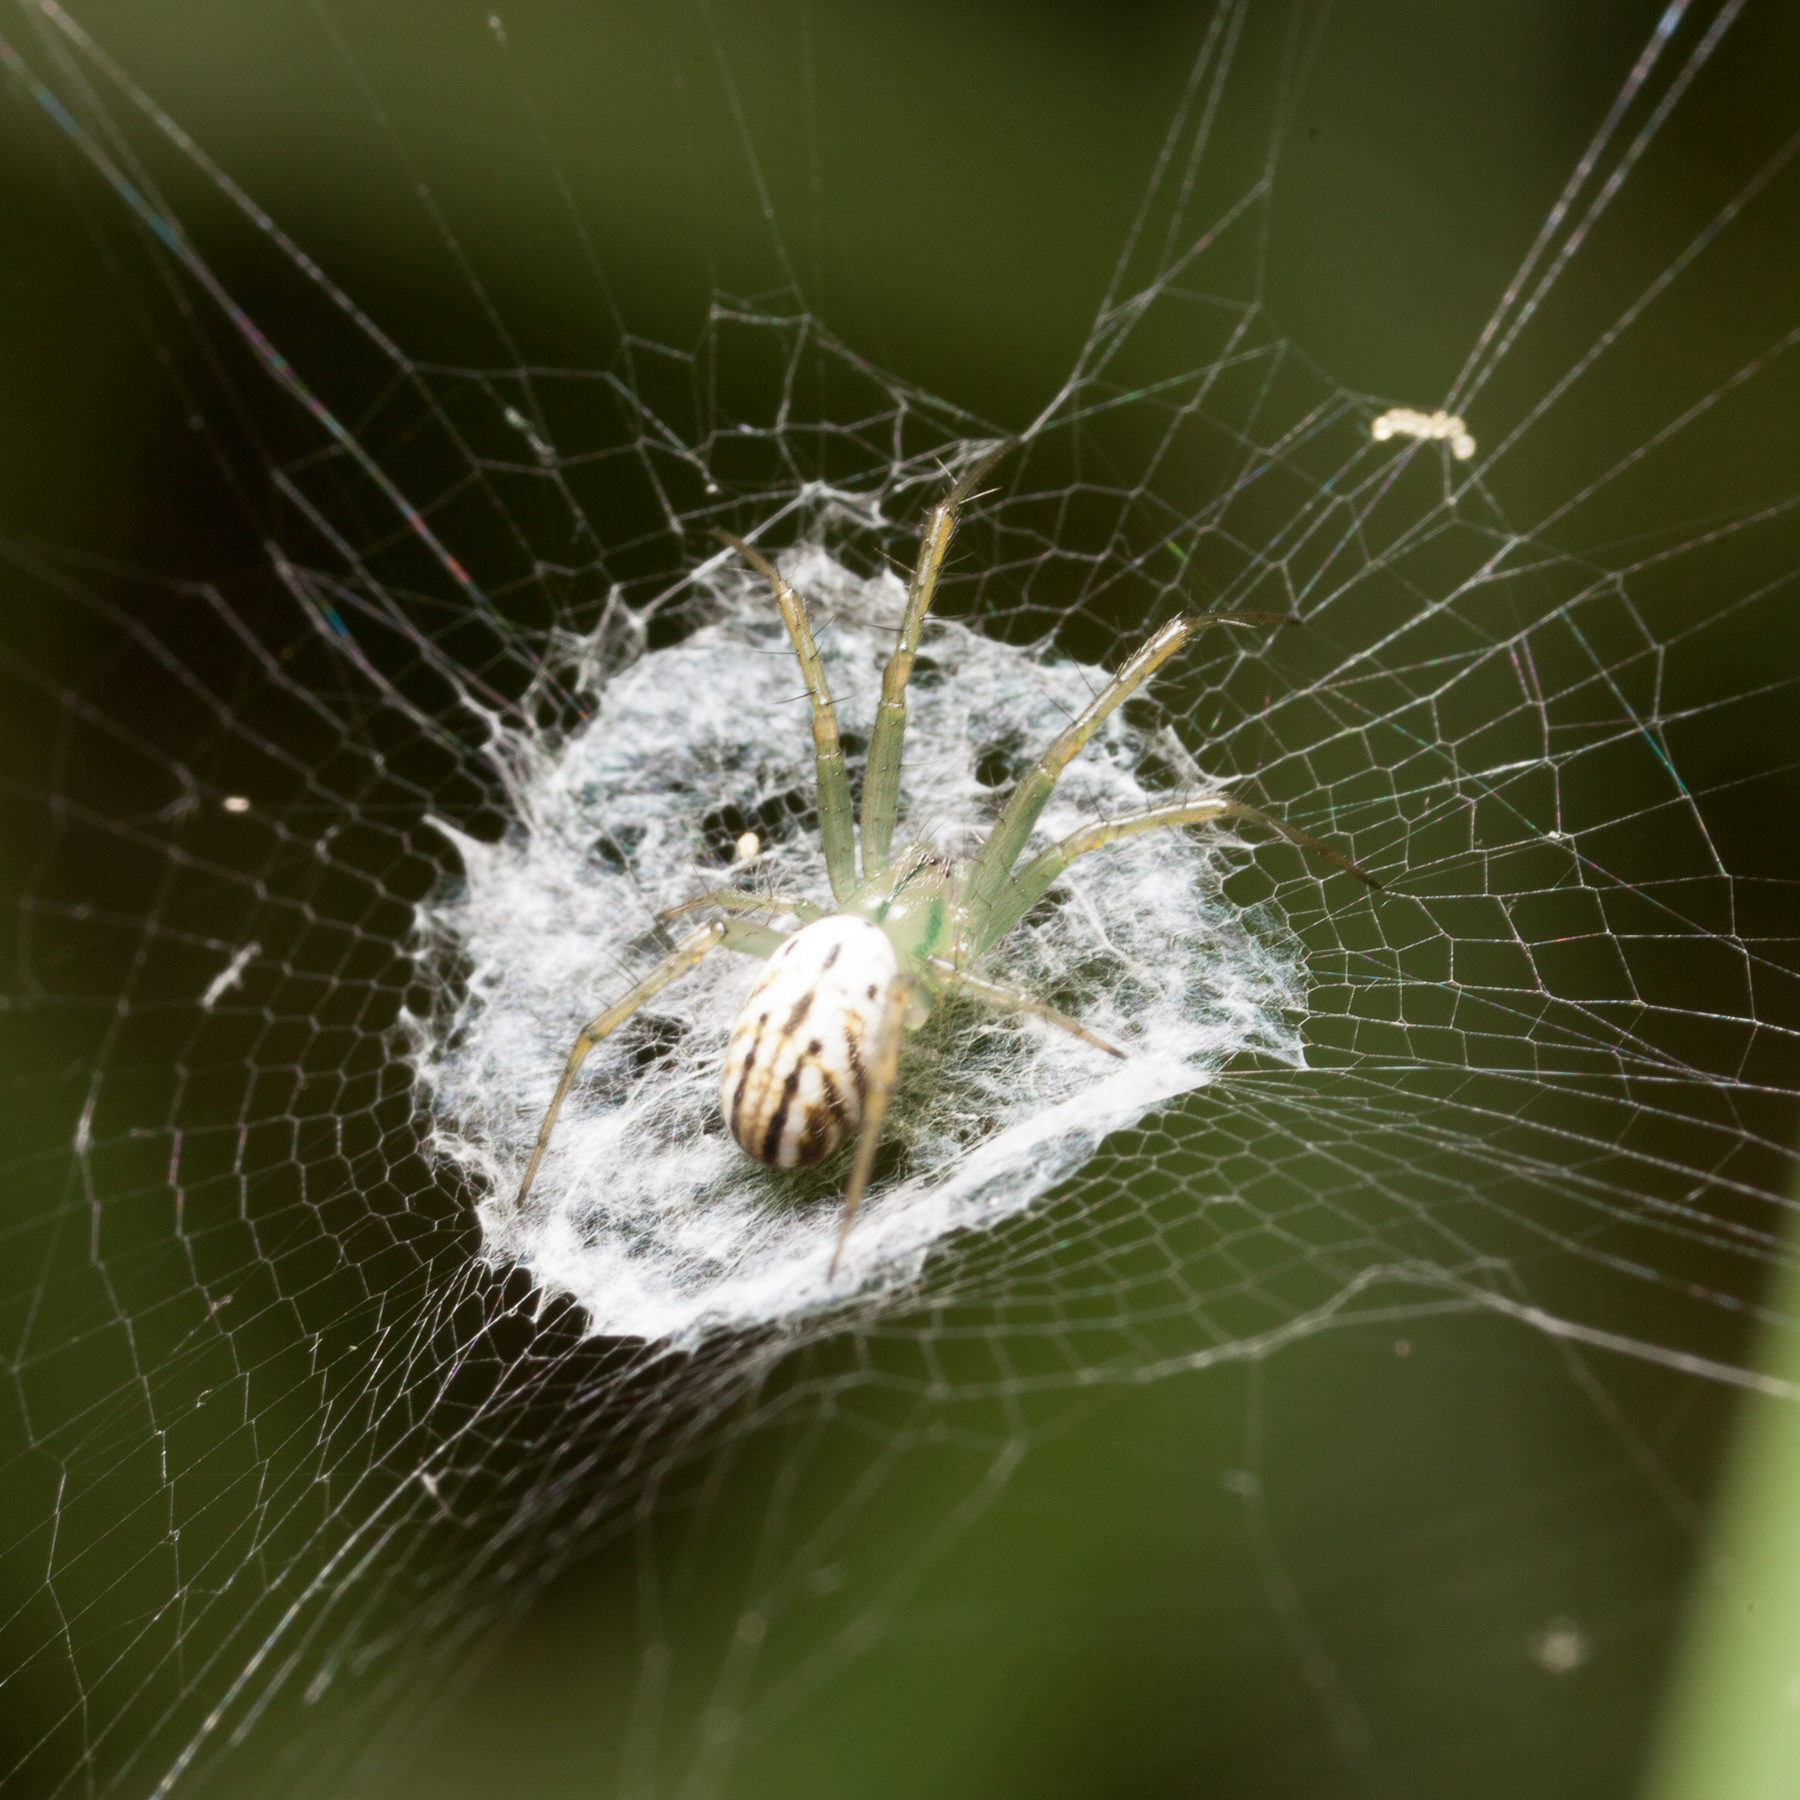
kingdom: Animalia
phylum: Arthropoda
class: Arachnida
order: Araneae
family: Araneidae
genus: Mangora
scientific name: Mangora gibberosa
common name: Lined orbweaver
